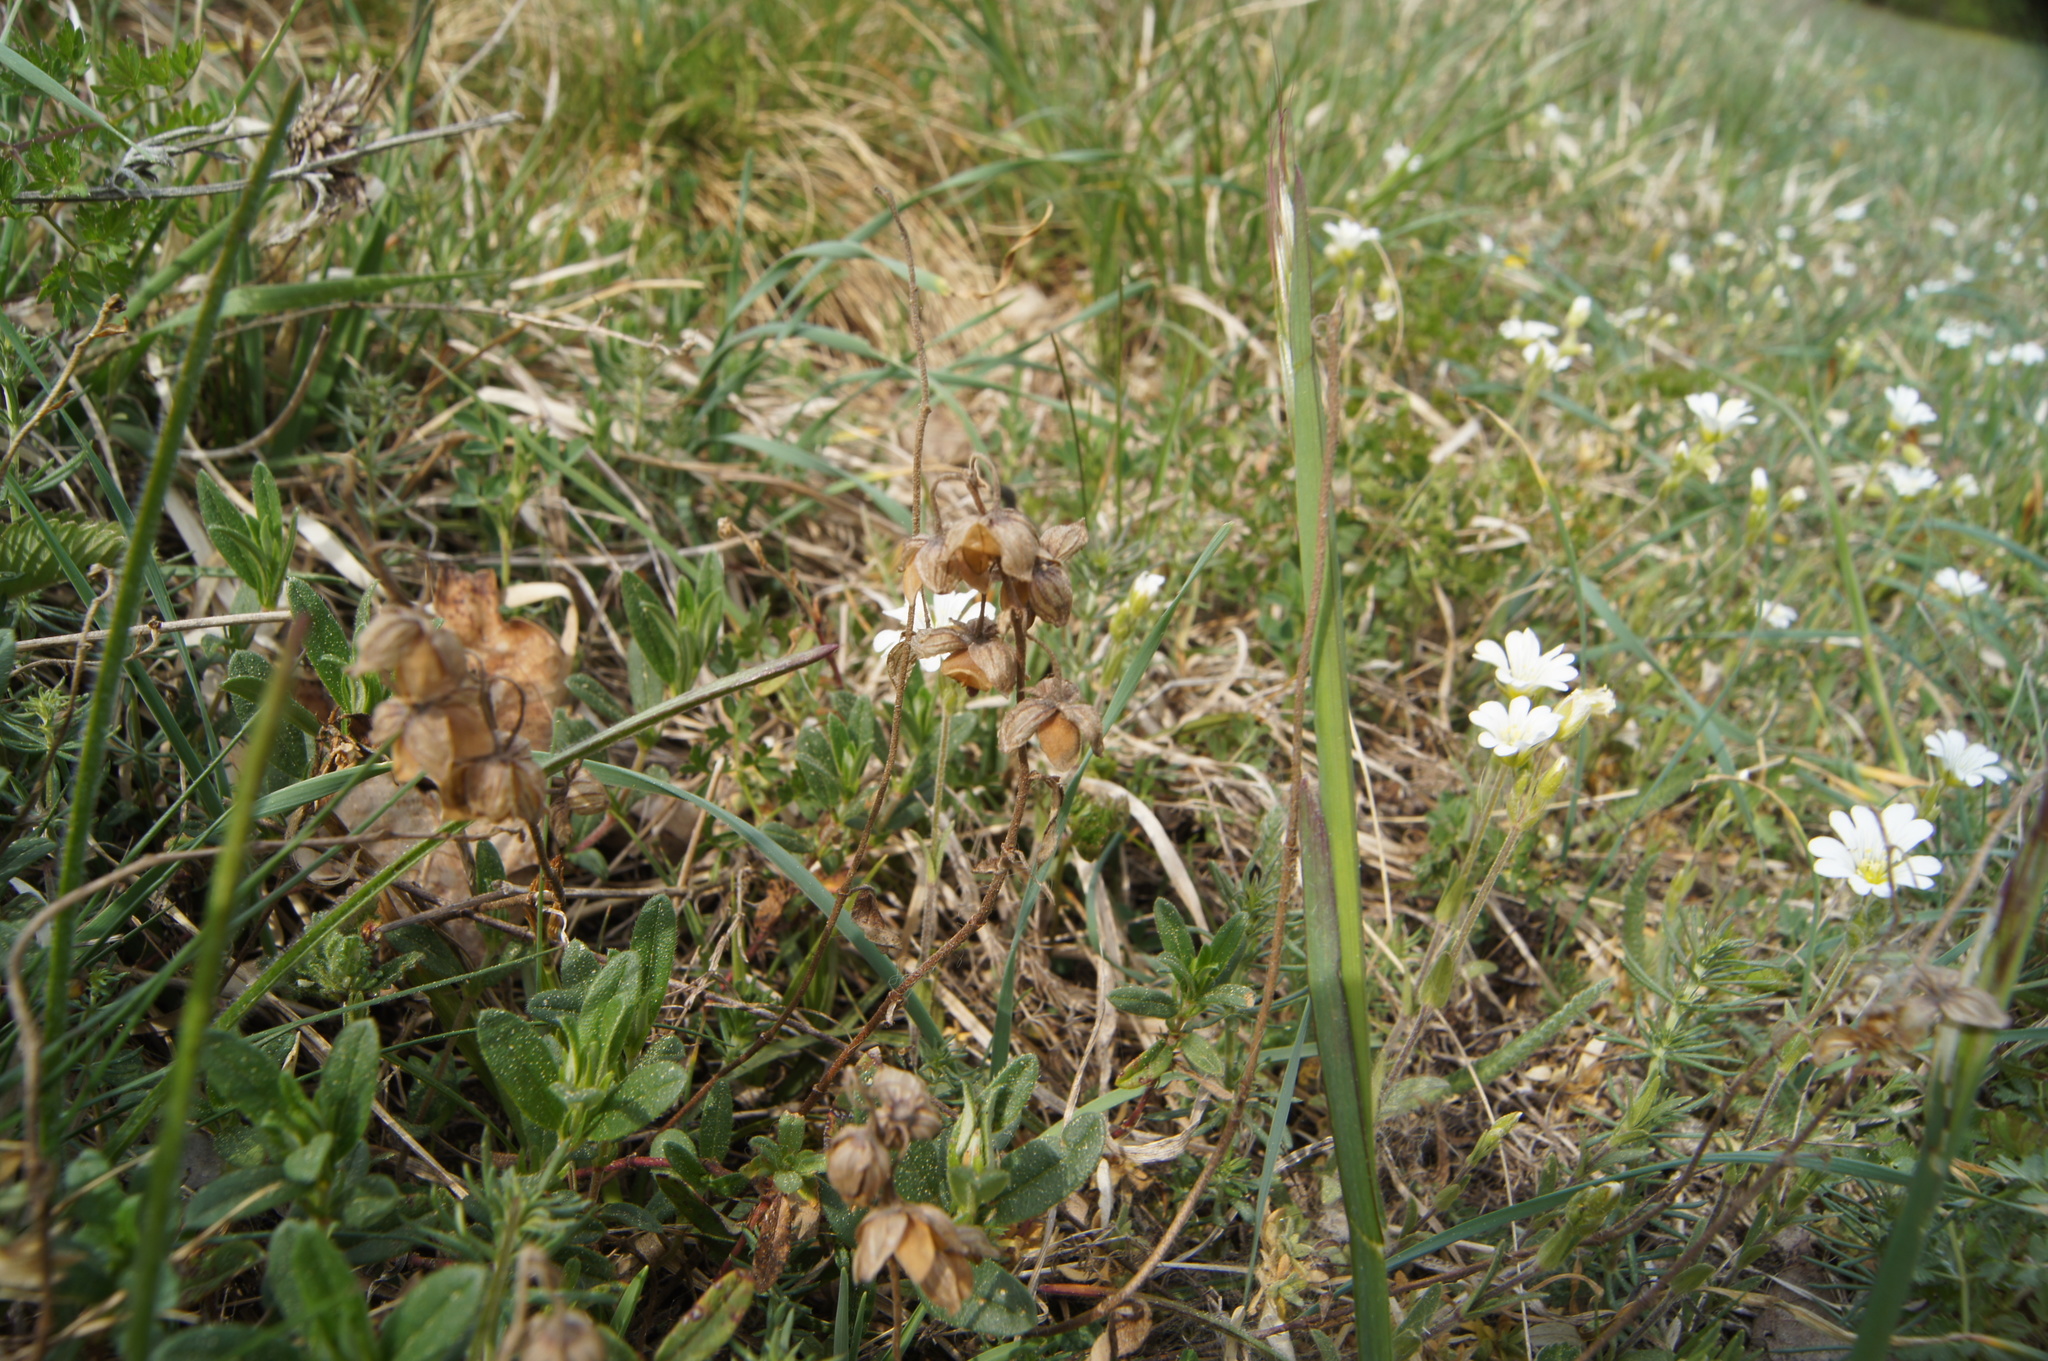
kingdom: Plantae
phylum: Tracheophyta
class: Magnoliopsida
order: Malvales
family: Cistaceae
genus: Helianthemum
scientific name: Helianthemum nummularium
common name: Common rock-rose
